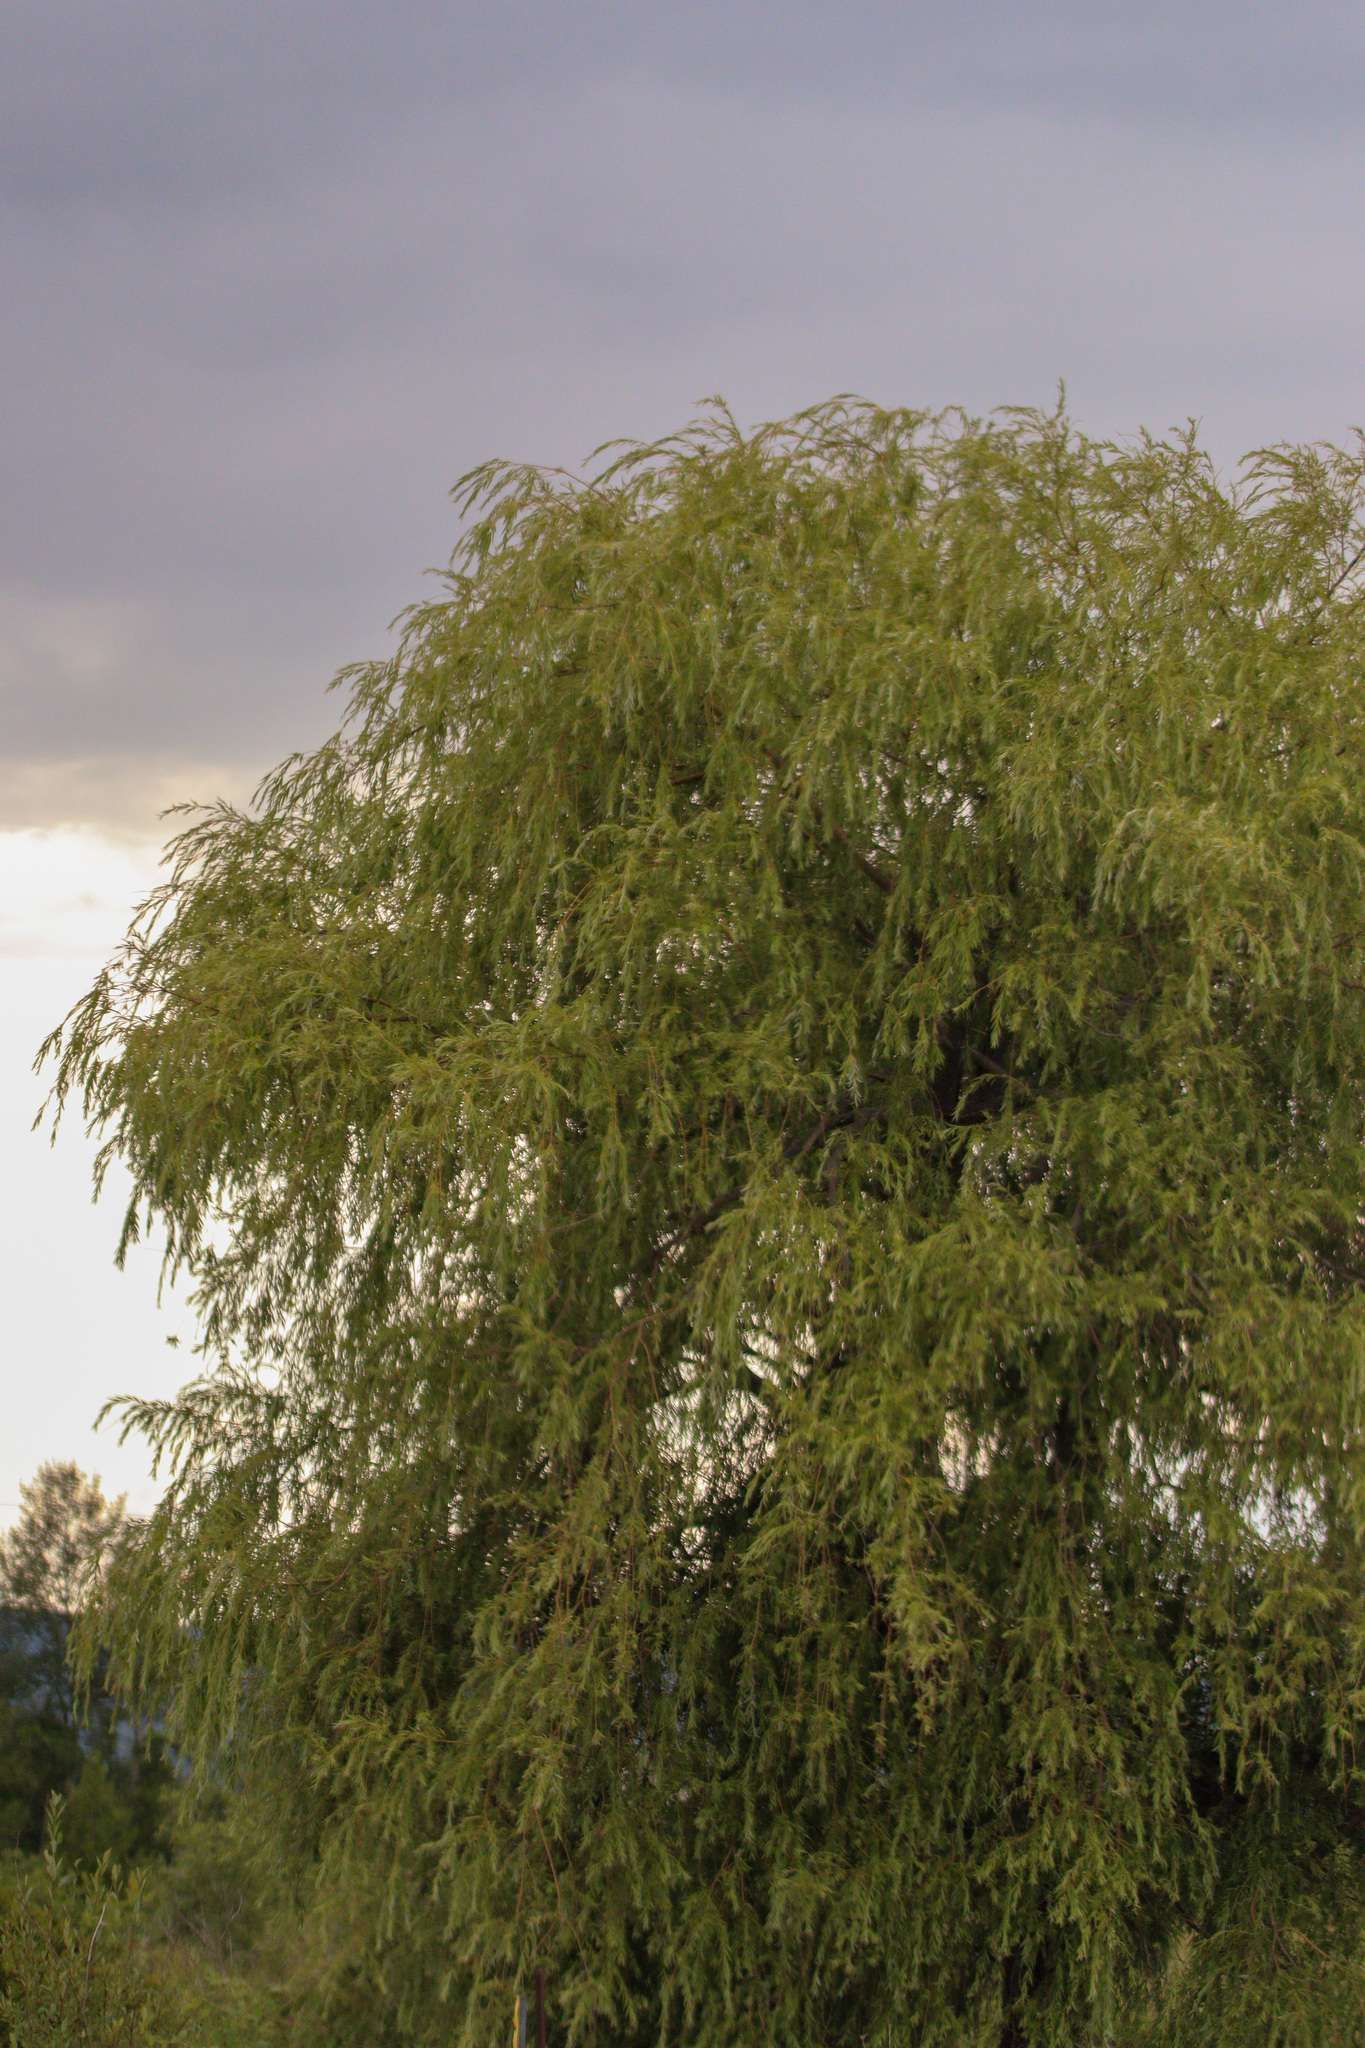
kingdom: Plantae
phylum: Tracheophyta
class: Magnoliopsida
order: Malpighiales
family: Salicaceae
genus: Salix
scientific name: Salix pendulina
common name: Wisconsin weeping willow
